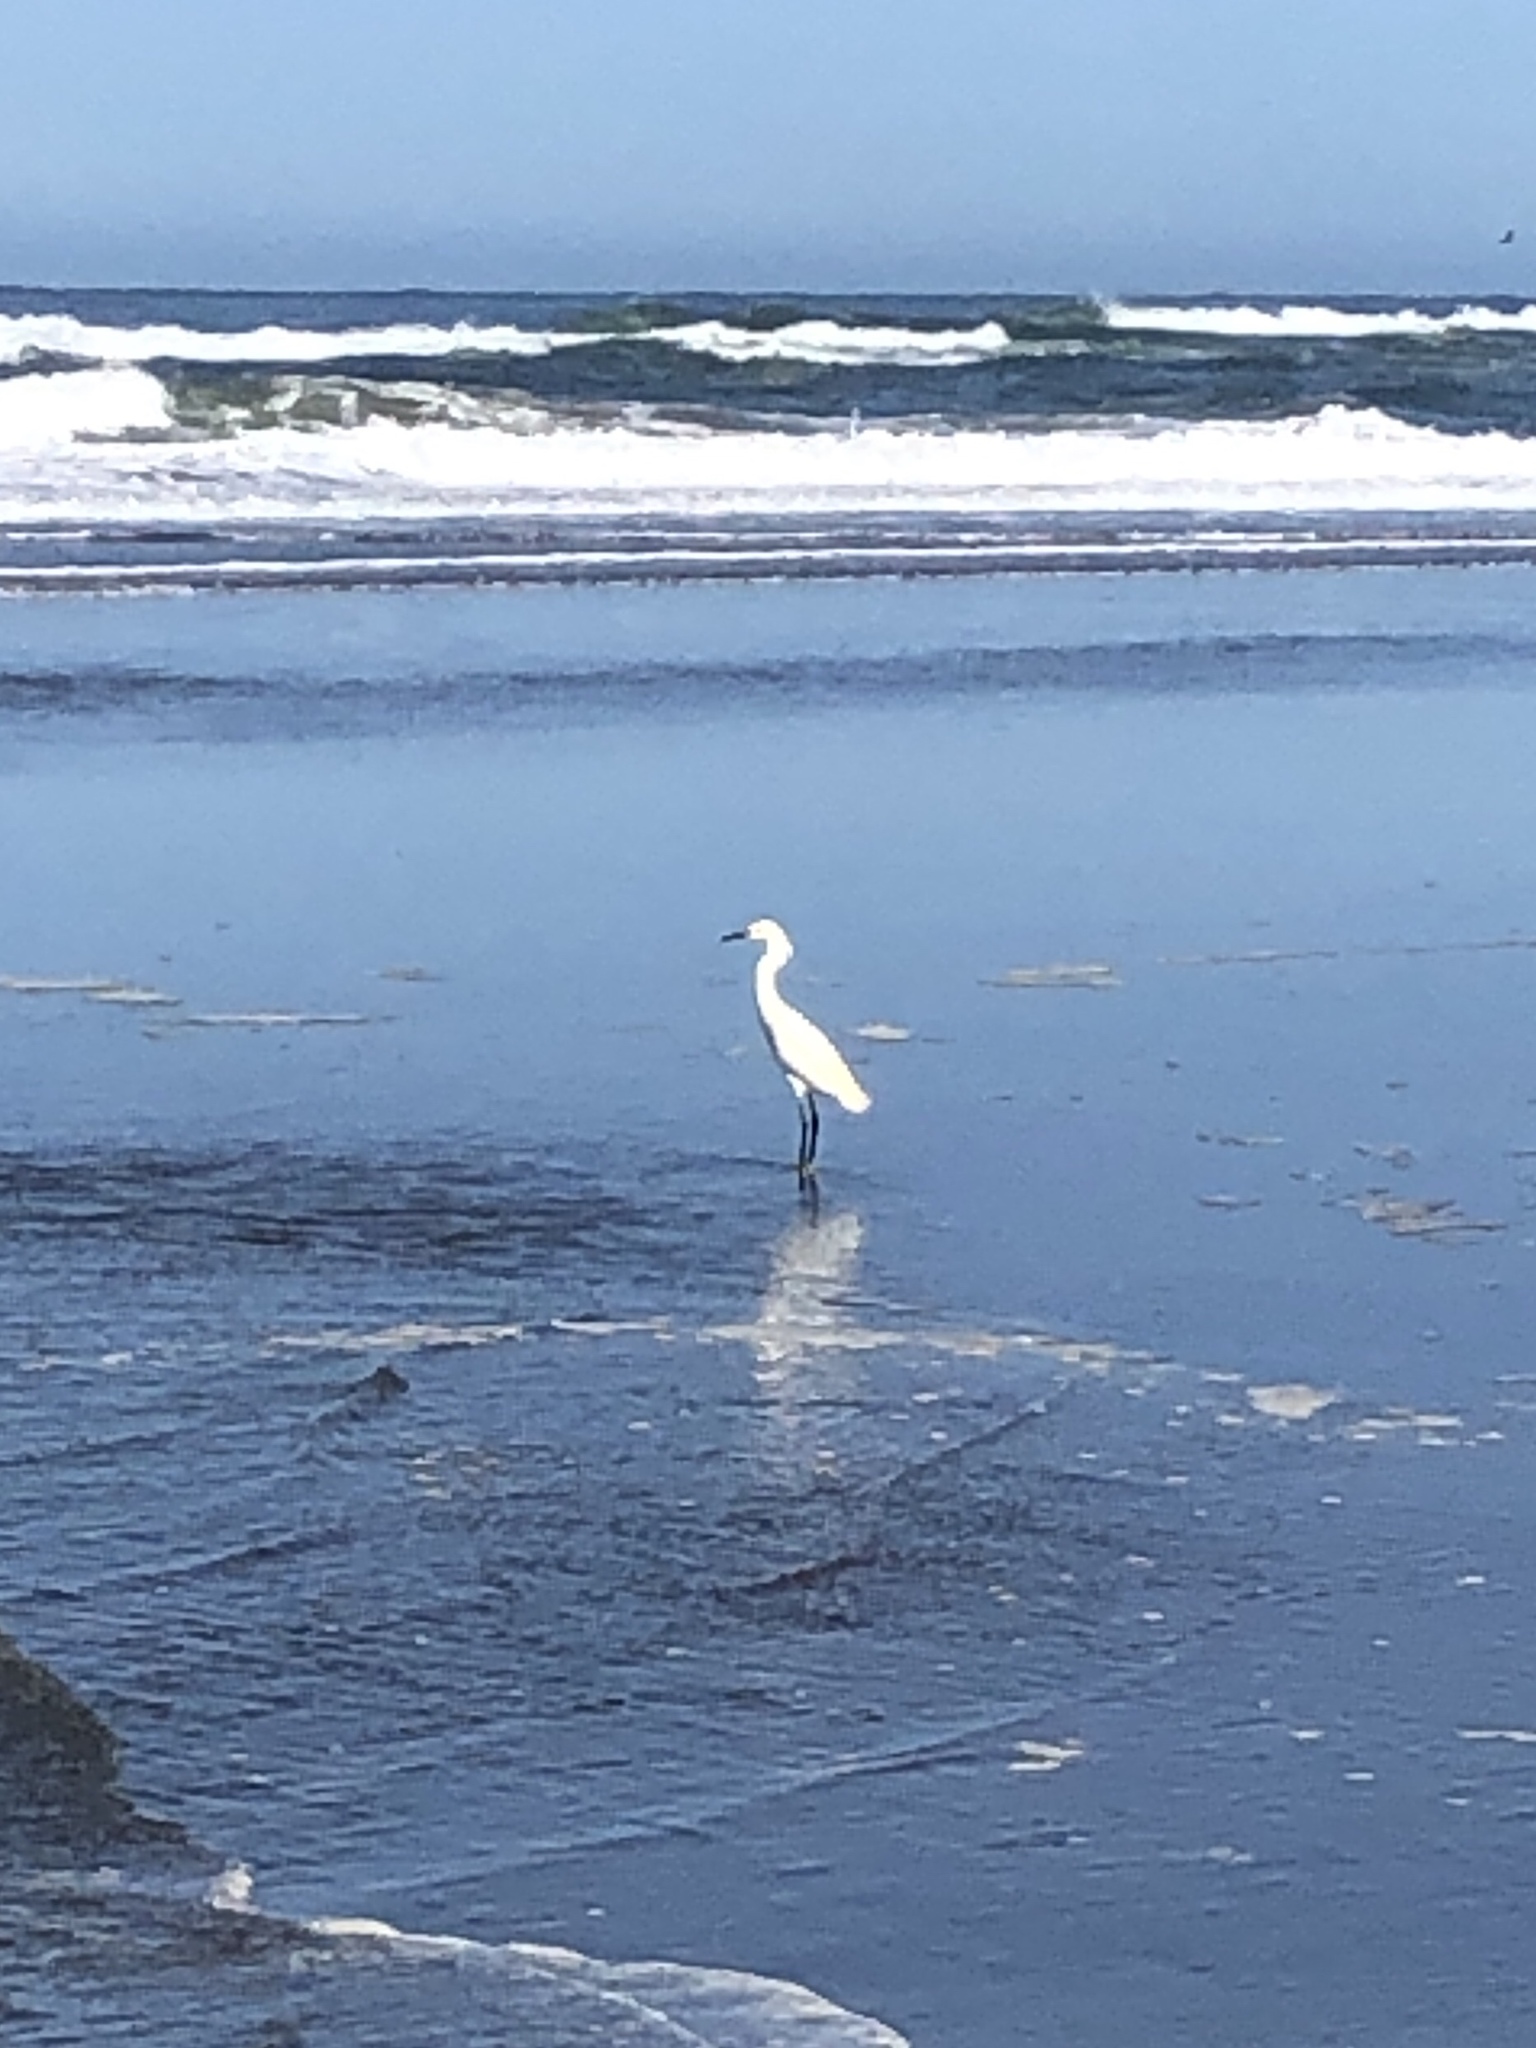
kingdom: Animalia
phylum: Chordata
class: Aves
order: Pelecaniformes
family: Ardeidae
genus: Egretta
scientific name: Egretta thula
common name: Snowy egret
